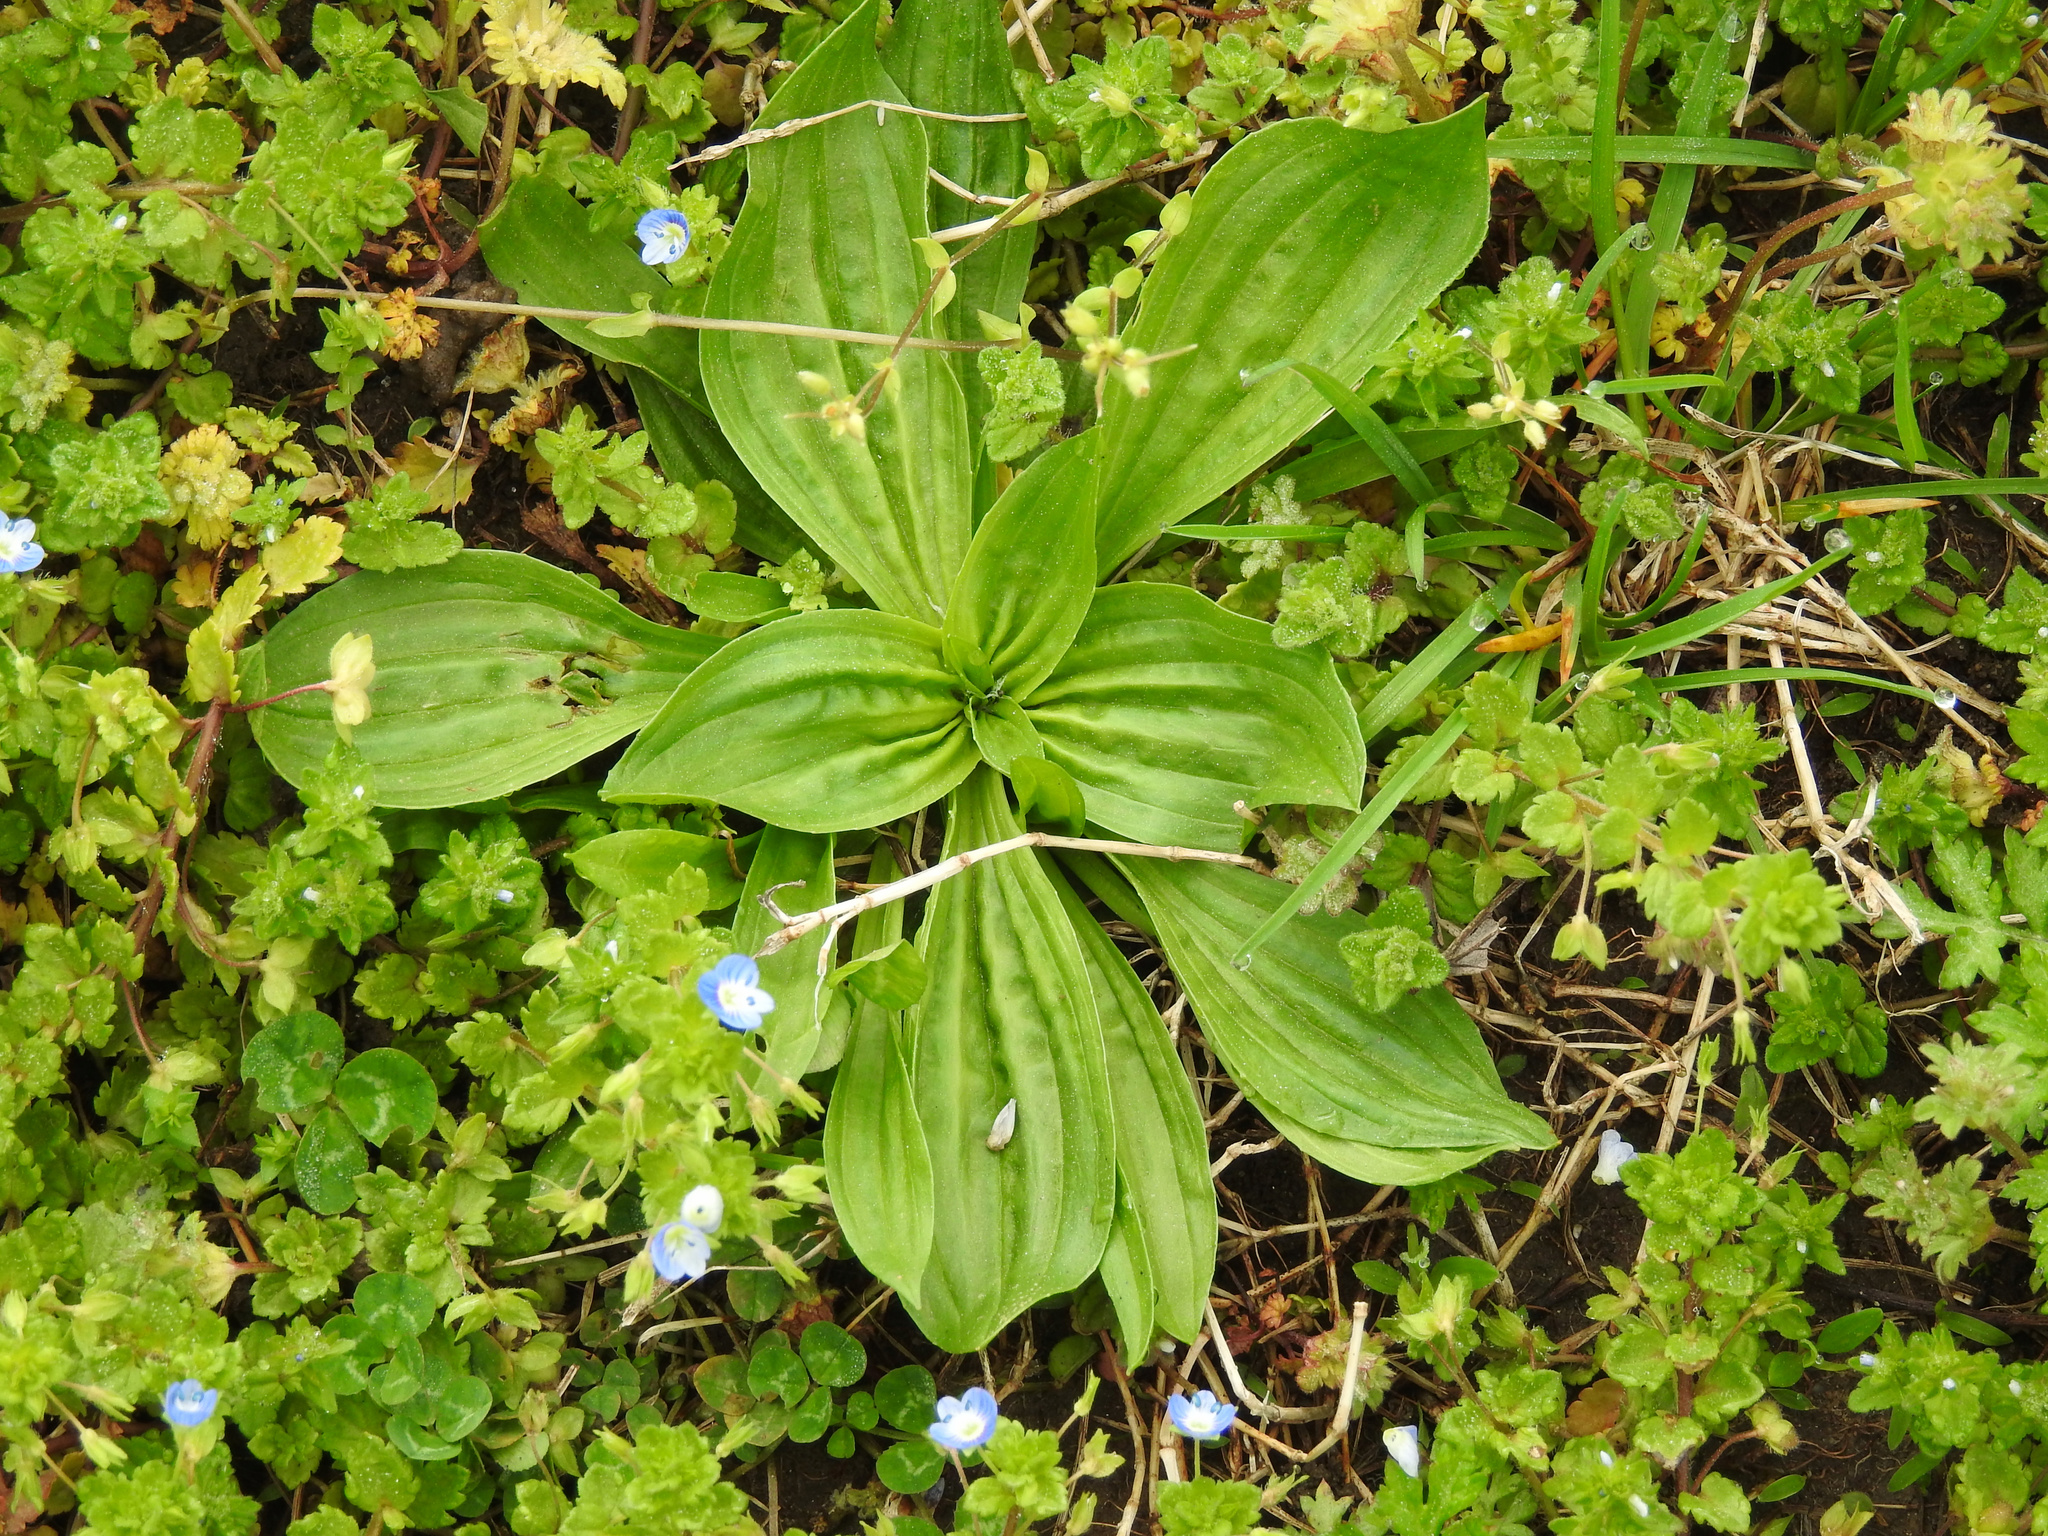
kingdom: Plantae
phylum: Tracheophyta
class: Magnoliopsida
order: Lamiales
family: Plantaginaceae
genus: Plantago
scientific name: Plantago lanceolata
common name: Ribwort plantain
